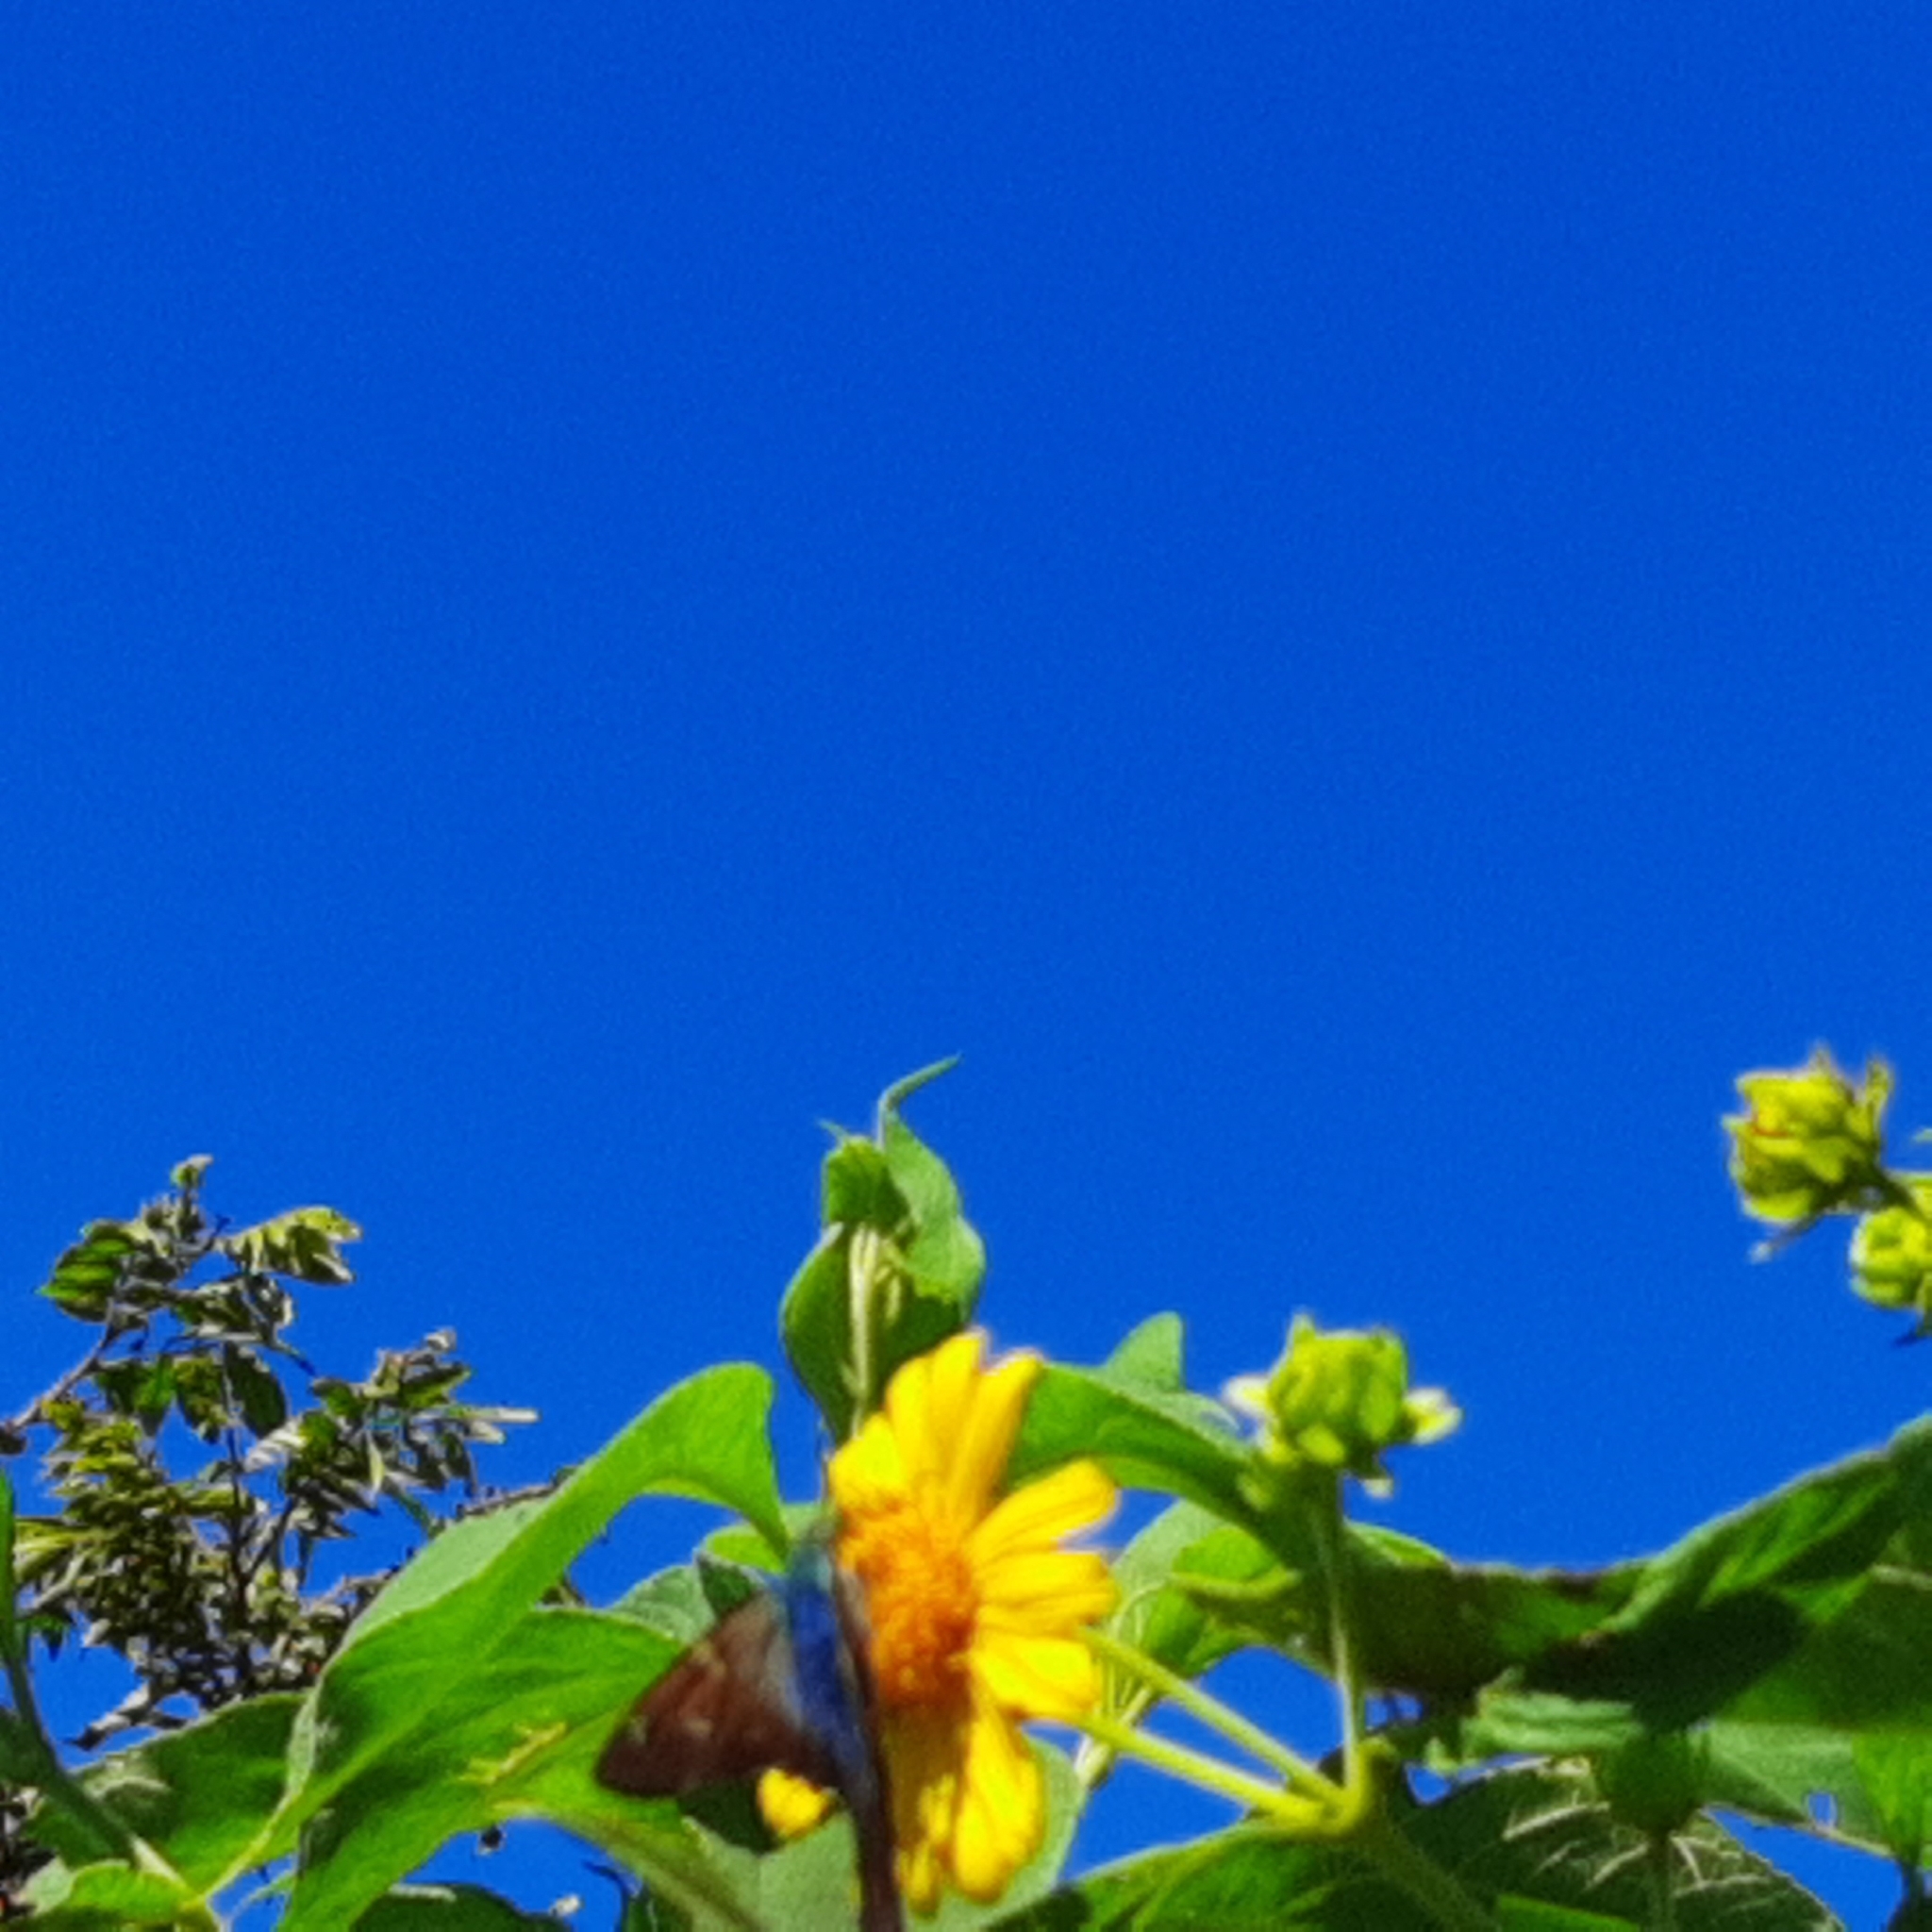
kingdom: Animalia
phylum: Arthropoda
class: Insecta
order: Lepidoptera
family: Hesperiidae
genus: Urbanus
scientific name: Urbanus proteus
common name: Long-tailed skipper
